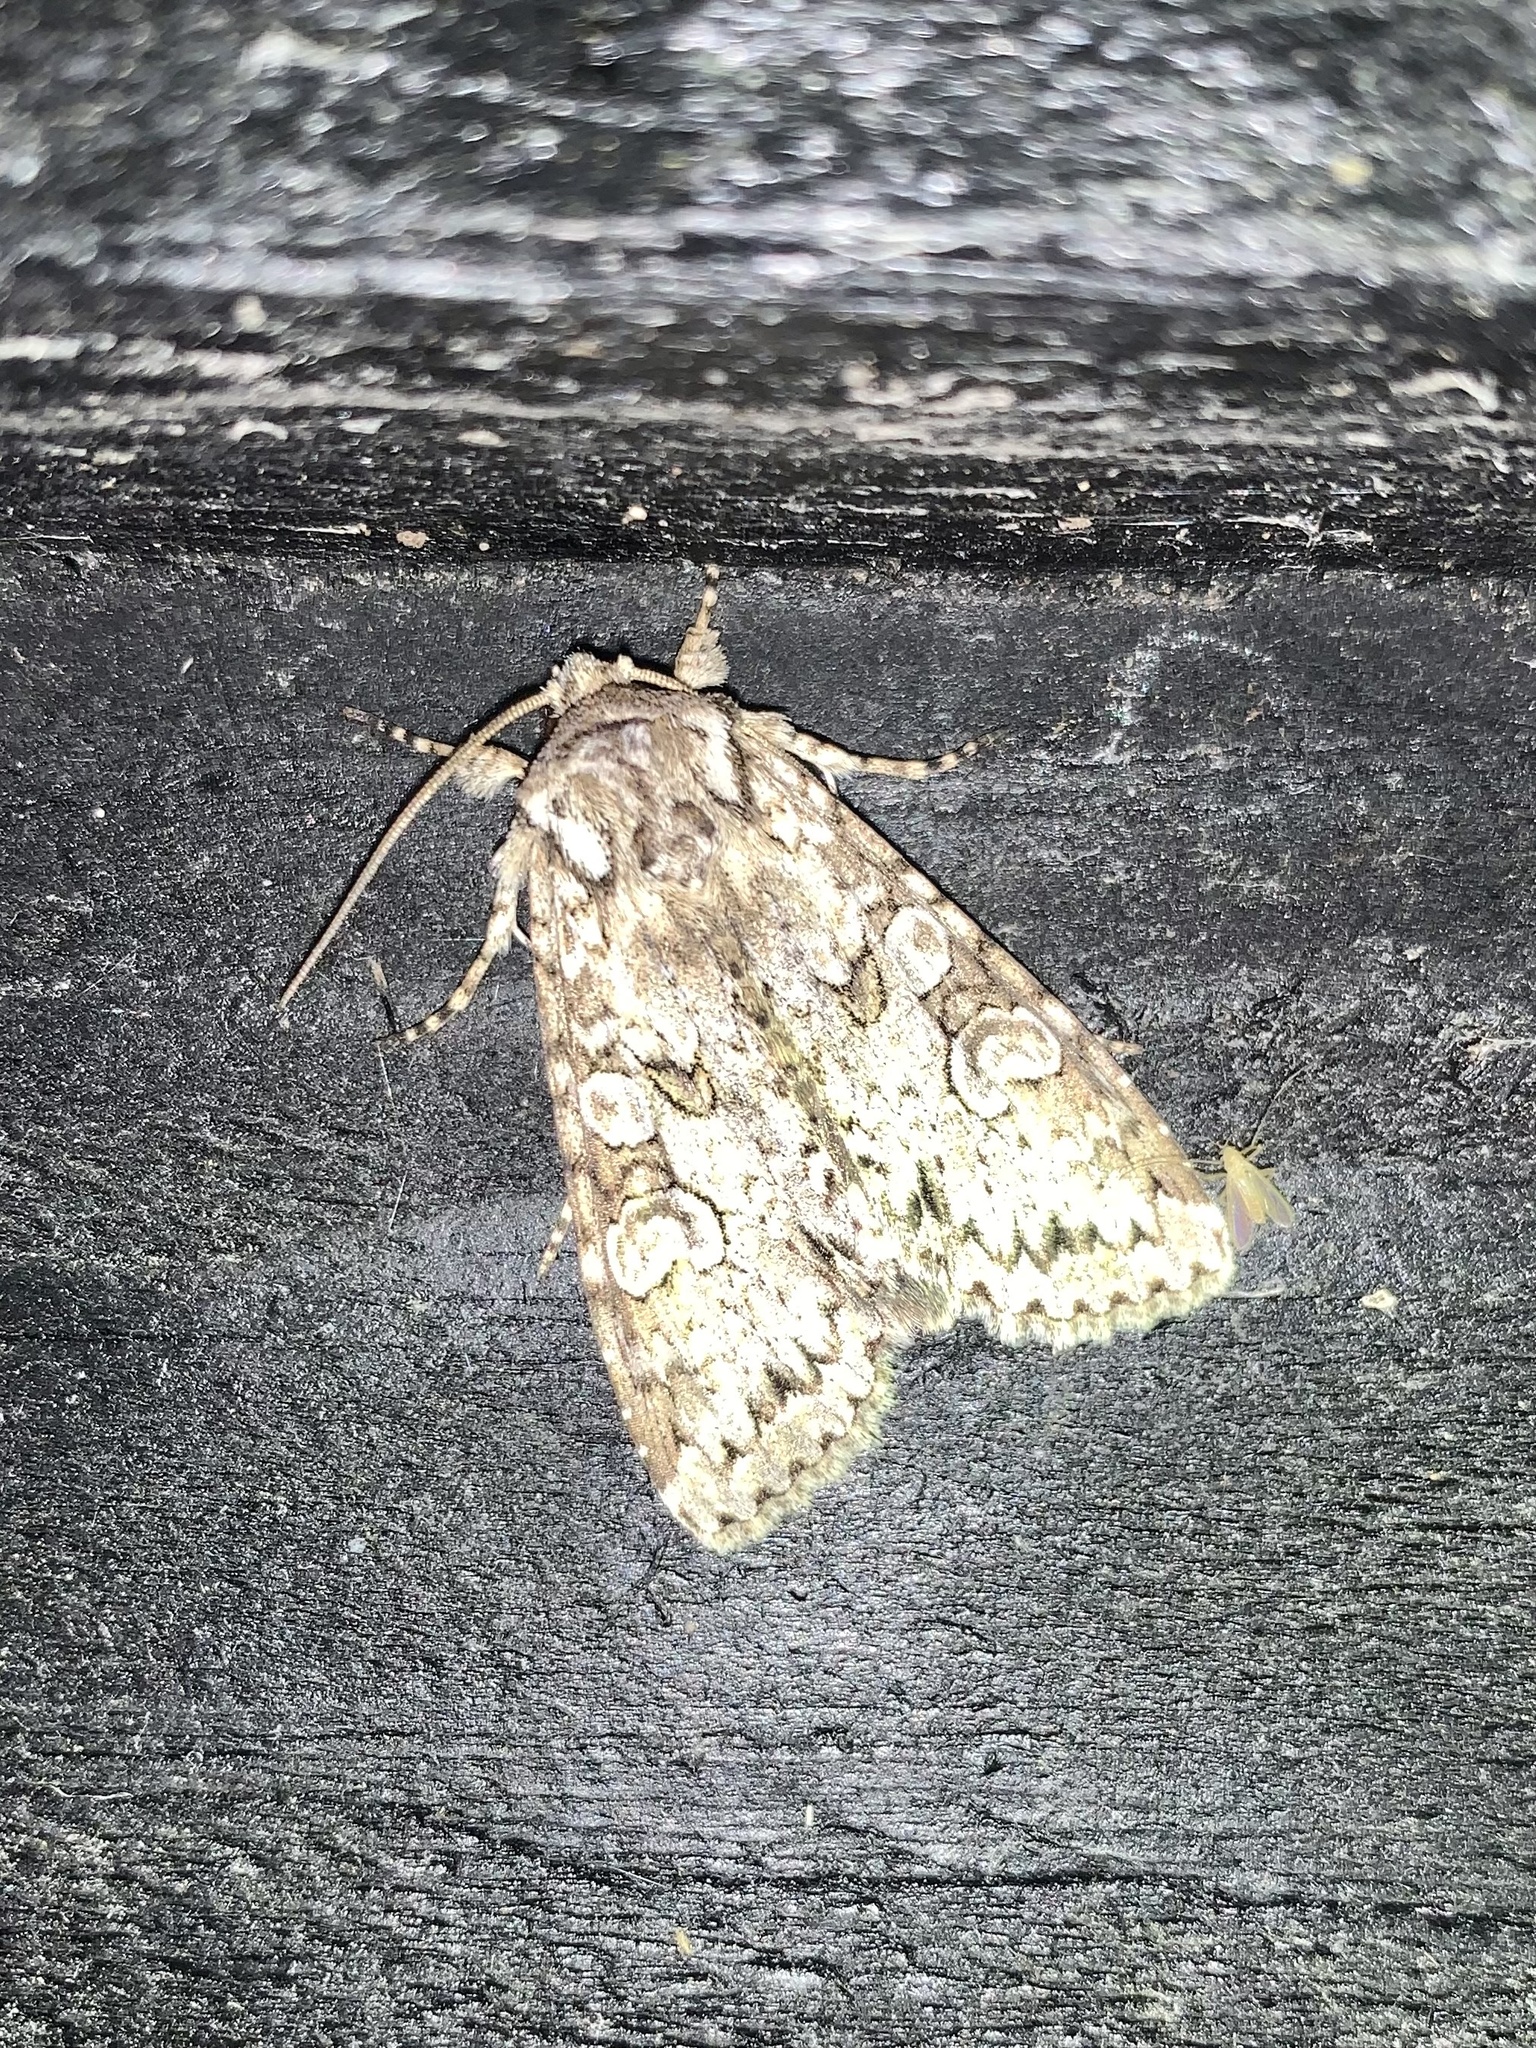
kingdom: Animalia
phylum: Arthropoda
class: Insecta
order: Lepidoptera
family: Noctuidae
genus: Polia
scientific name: Polia nebulosa
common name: Grey arches
